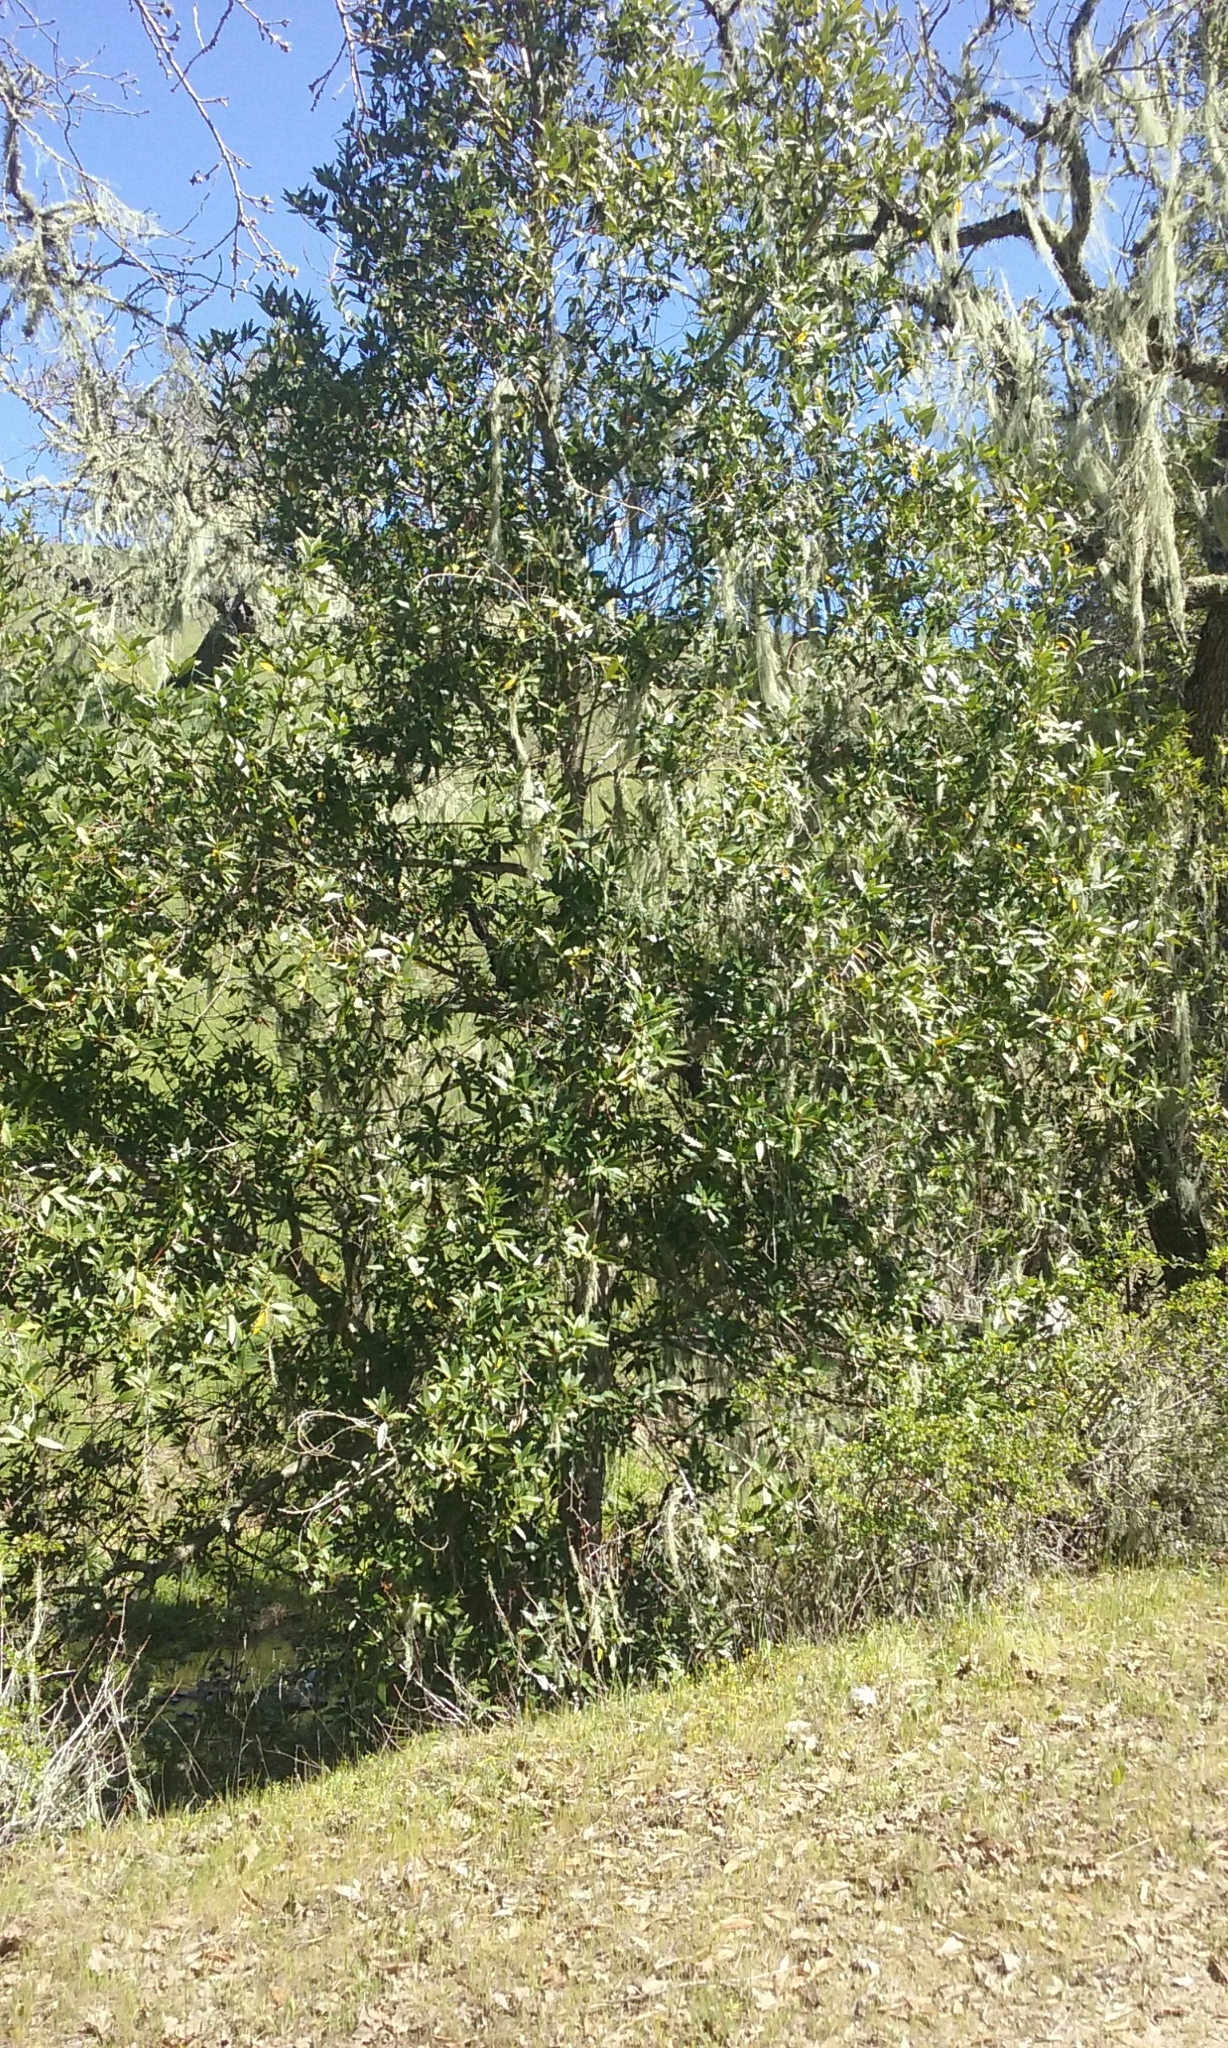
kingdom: Plantae
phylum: Tracheophyta
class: Magnoliopsida
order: Laurales
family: Lauraceae
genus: Umbellularia
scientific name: Umbellularia californica
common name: California bay
